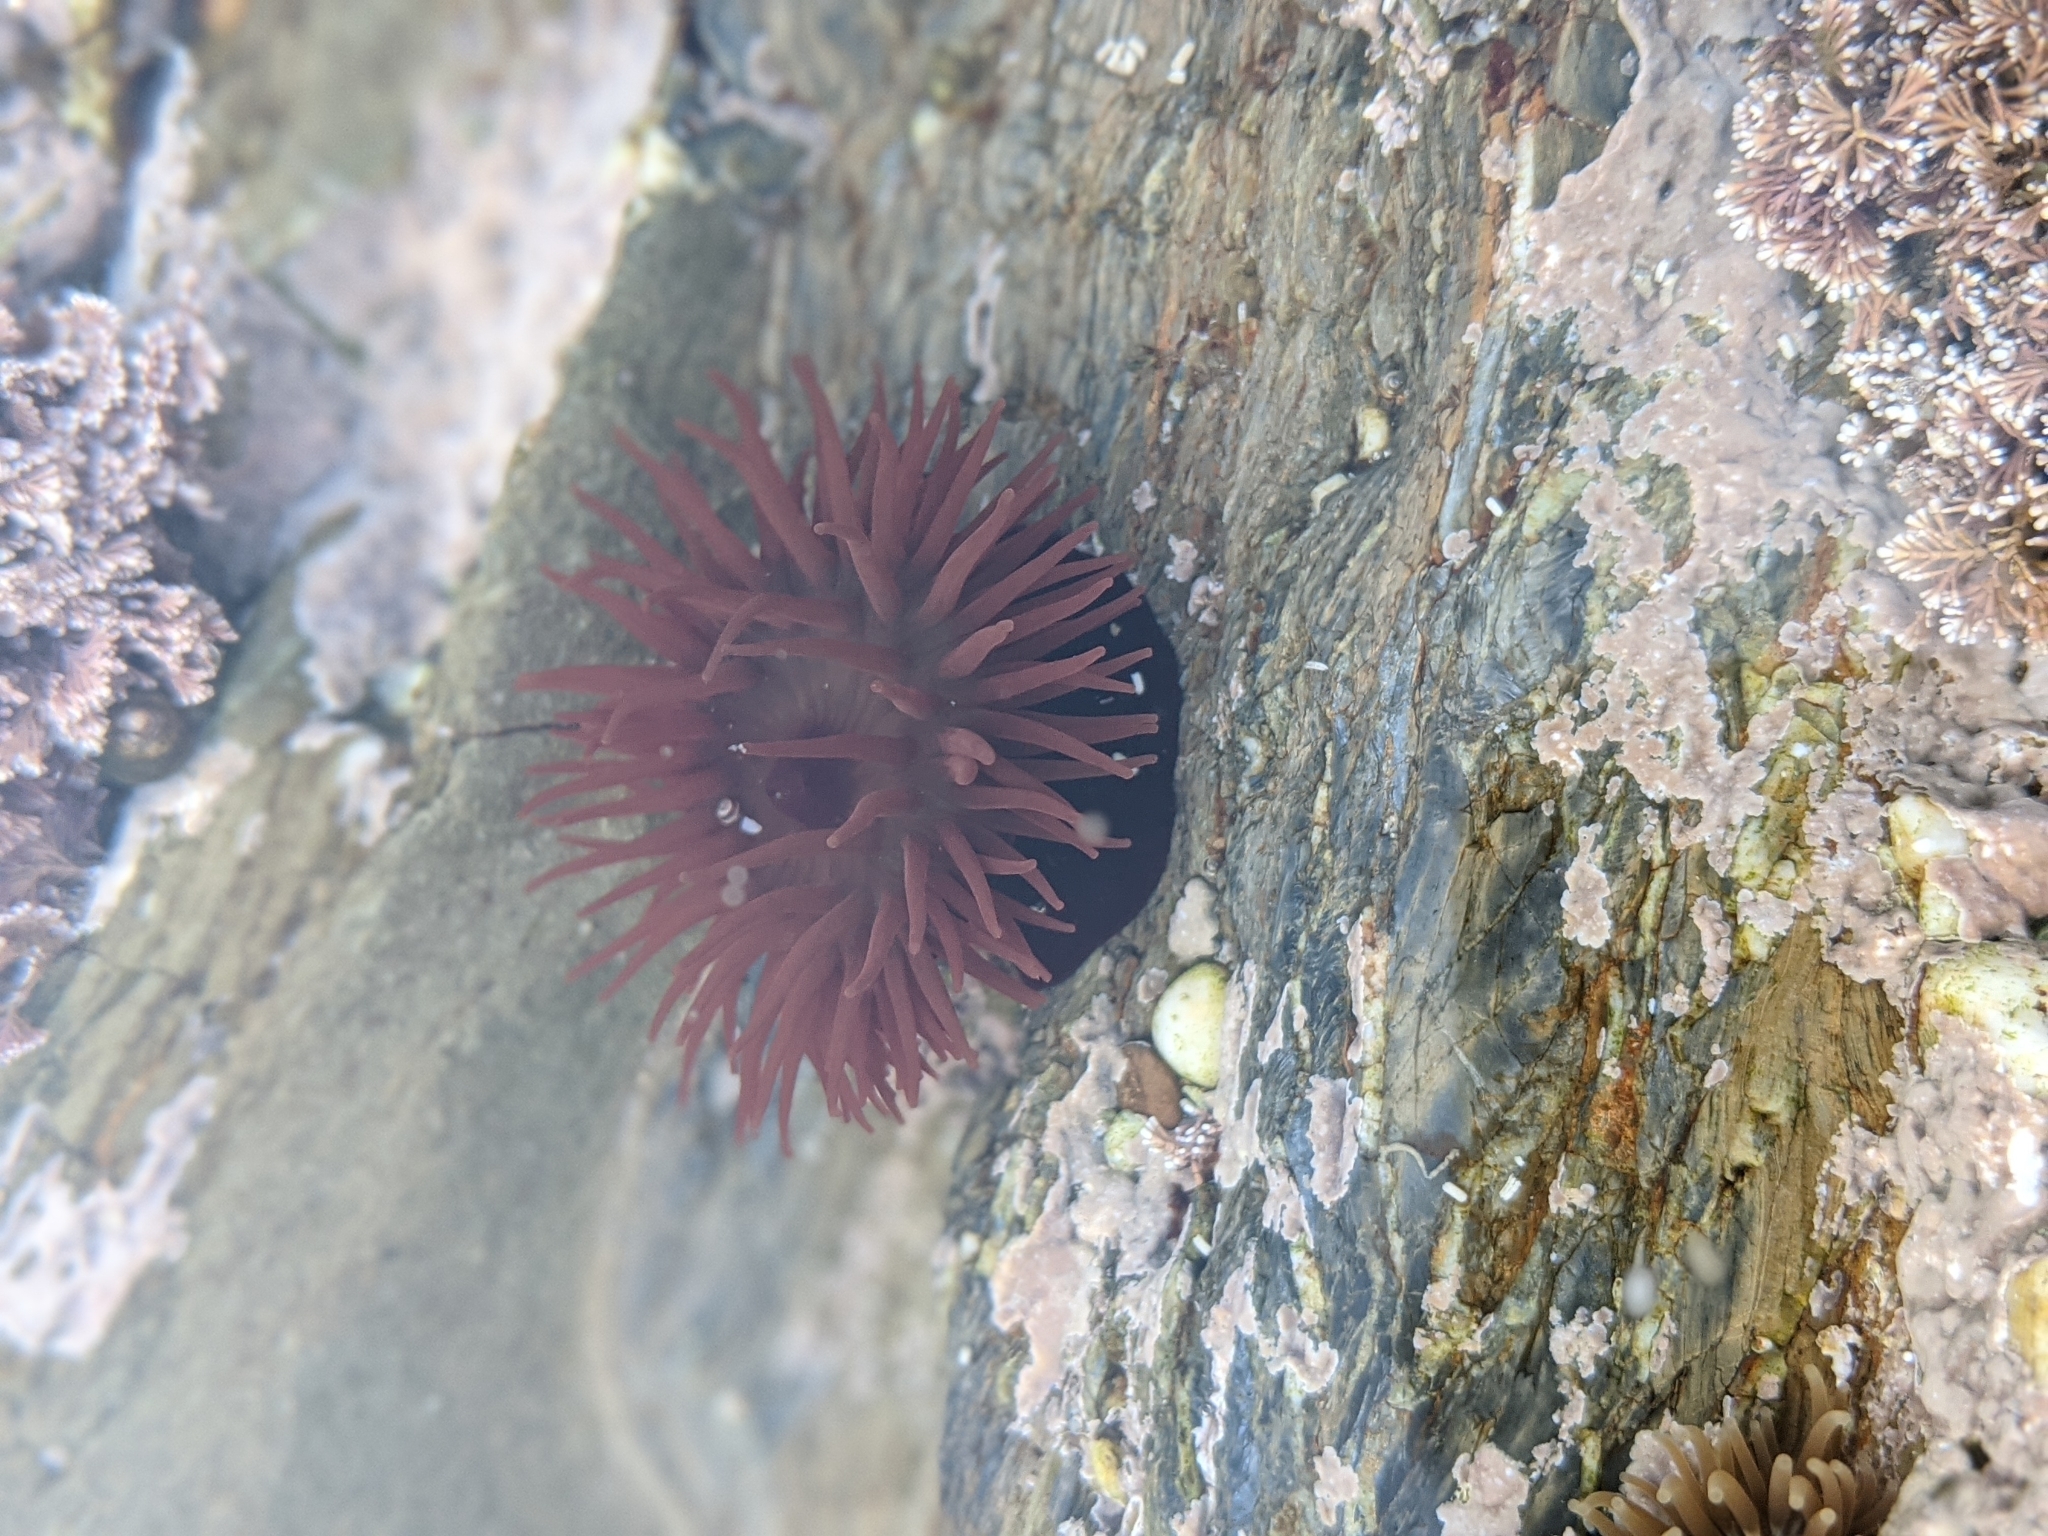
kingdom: Animalia
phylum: Cnidaria
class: Anthozoa
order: Actiniaria
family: Actiniidae
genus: Actinia
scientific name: Actinia equina
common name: Beadlet anemone
